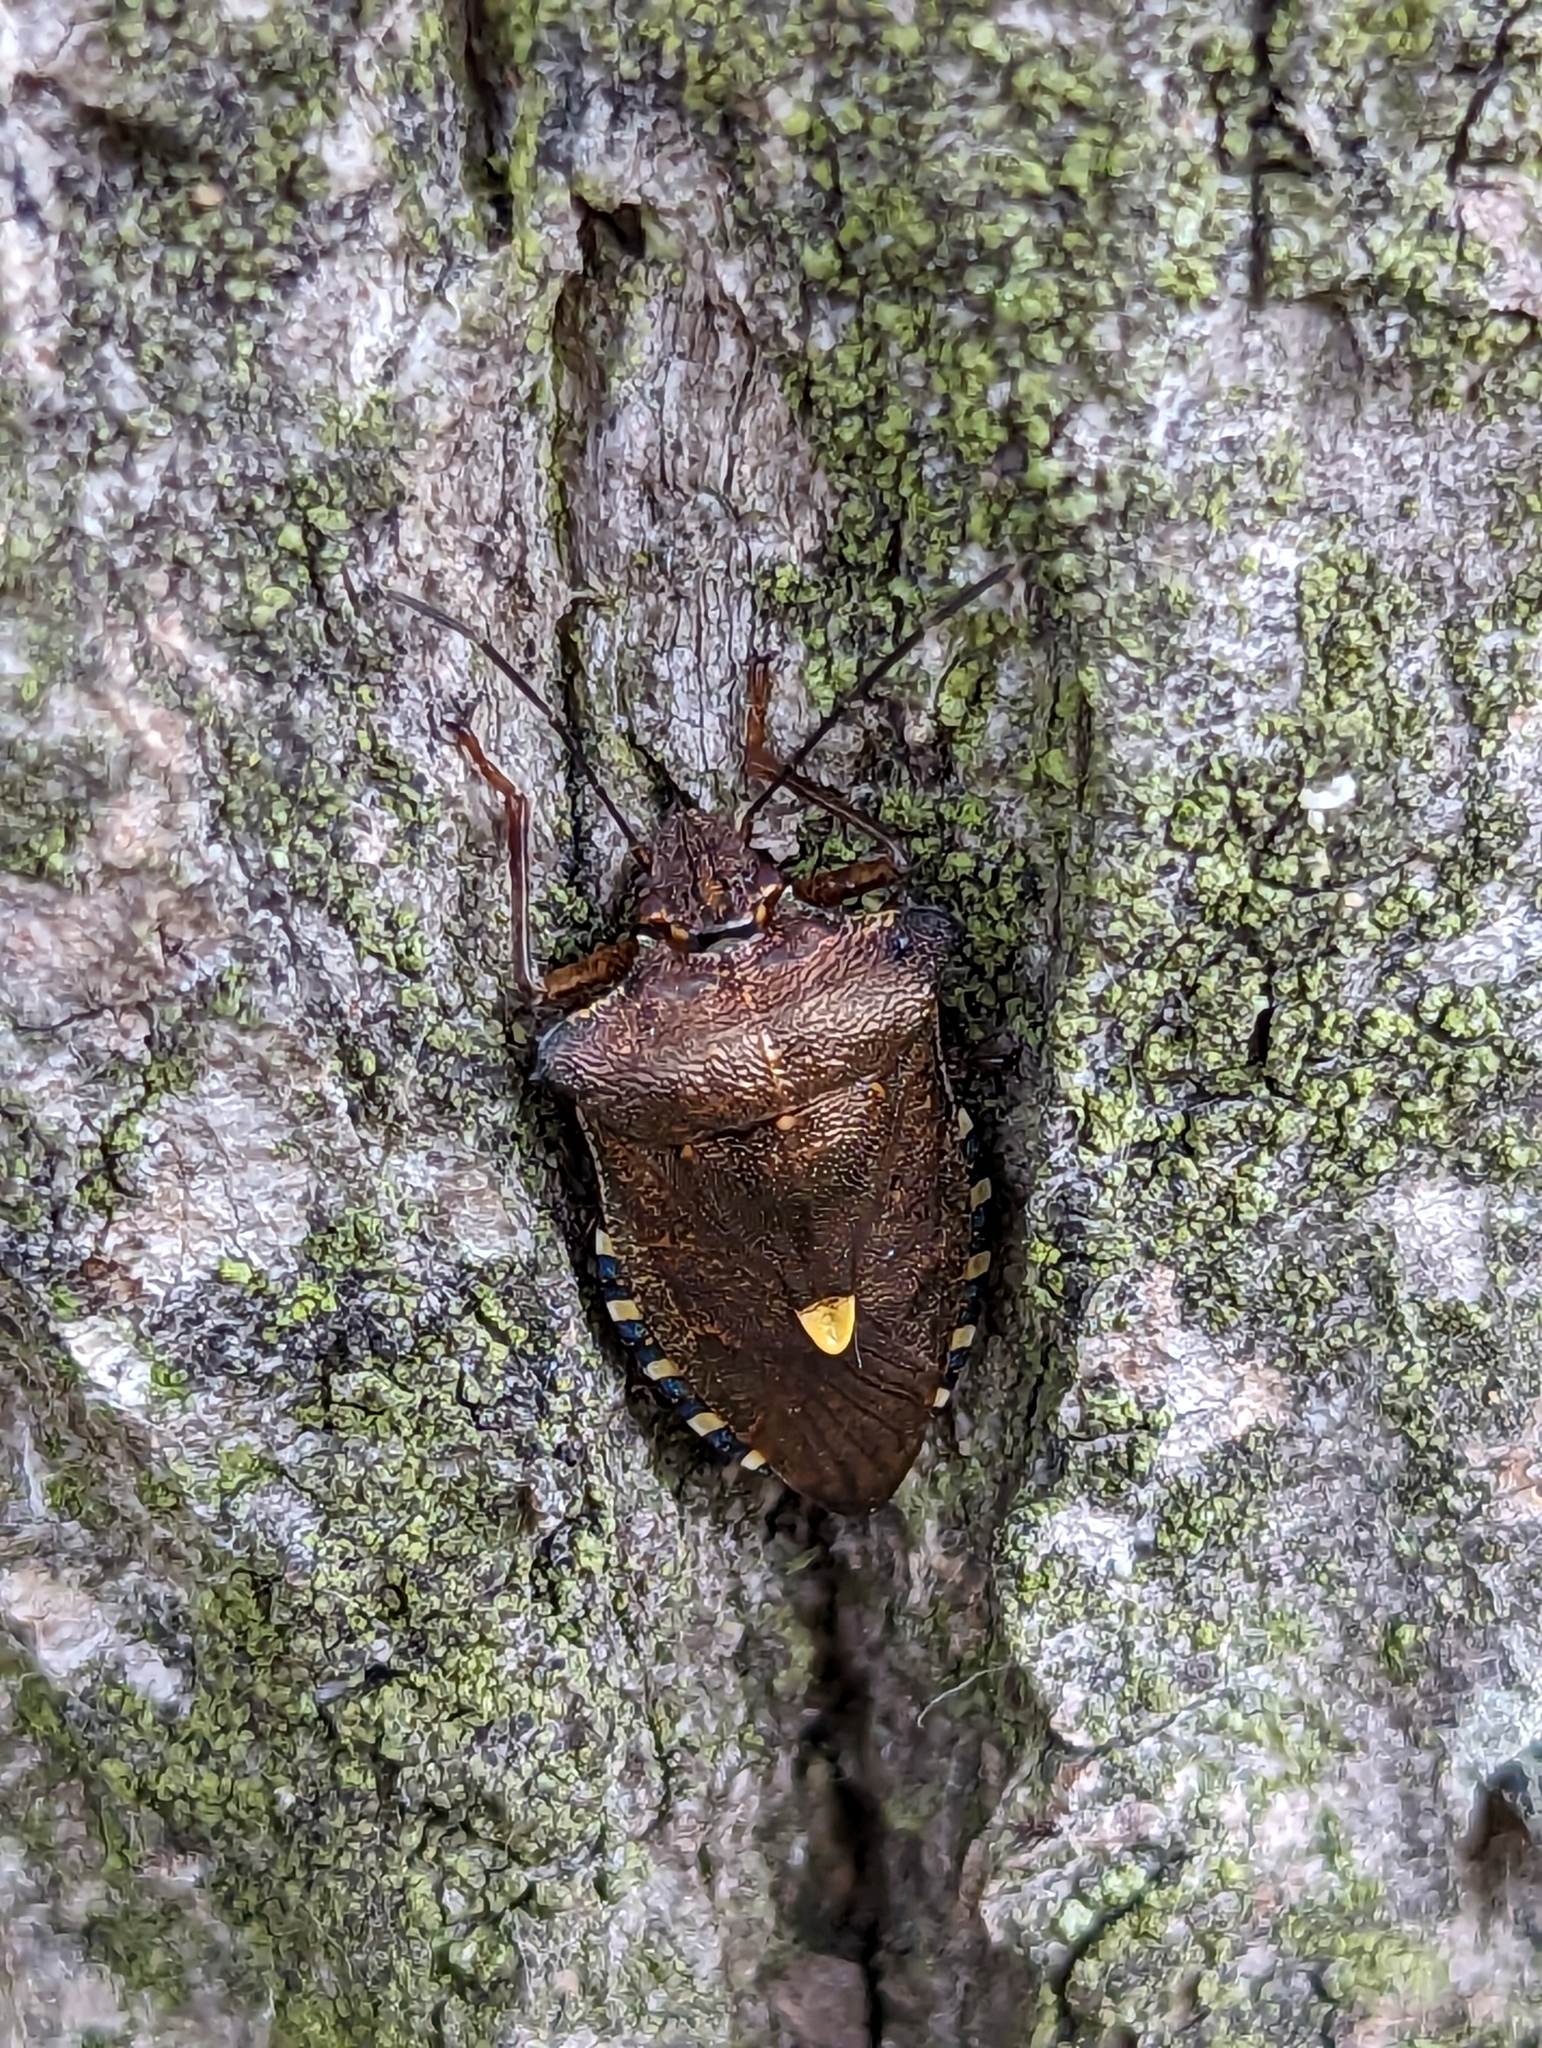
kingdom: Animalia
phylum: Arthropoda
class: Insecta
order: Hemiptera
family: Pentatomidae
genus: Pentatoma
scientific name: Pentatoma rufipes
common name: Forest bug
